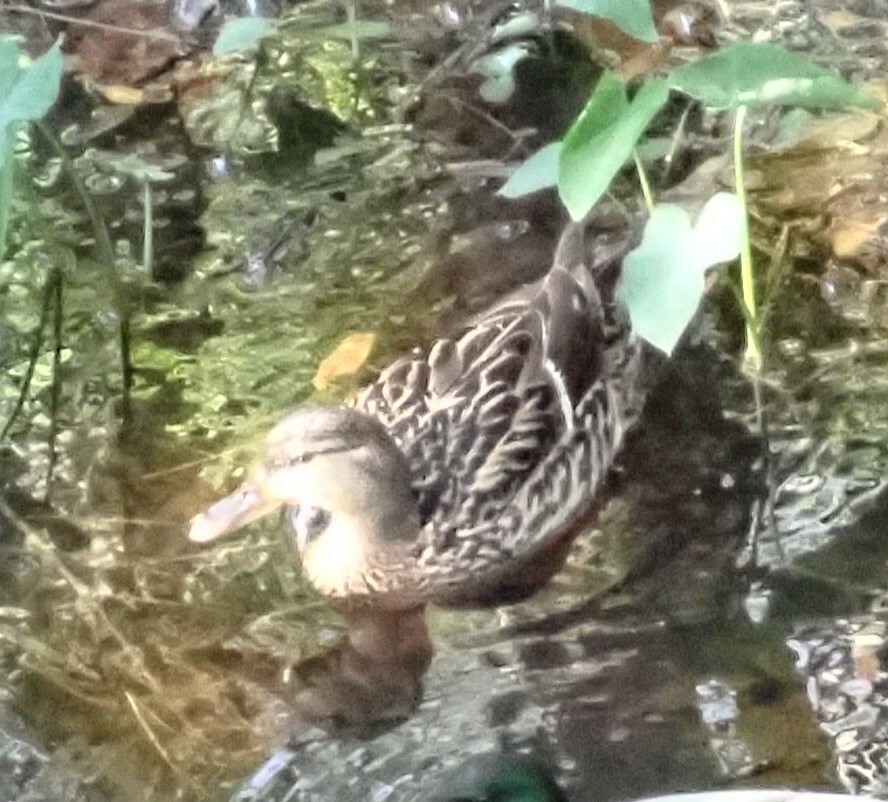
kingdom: Animalia
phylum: Chordata
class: Aves
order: Anseriformes
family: Anatidae
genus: Anas
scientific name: Anas platyrhynchos
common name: Mallard
